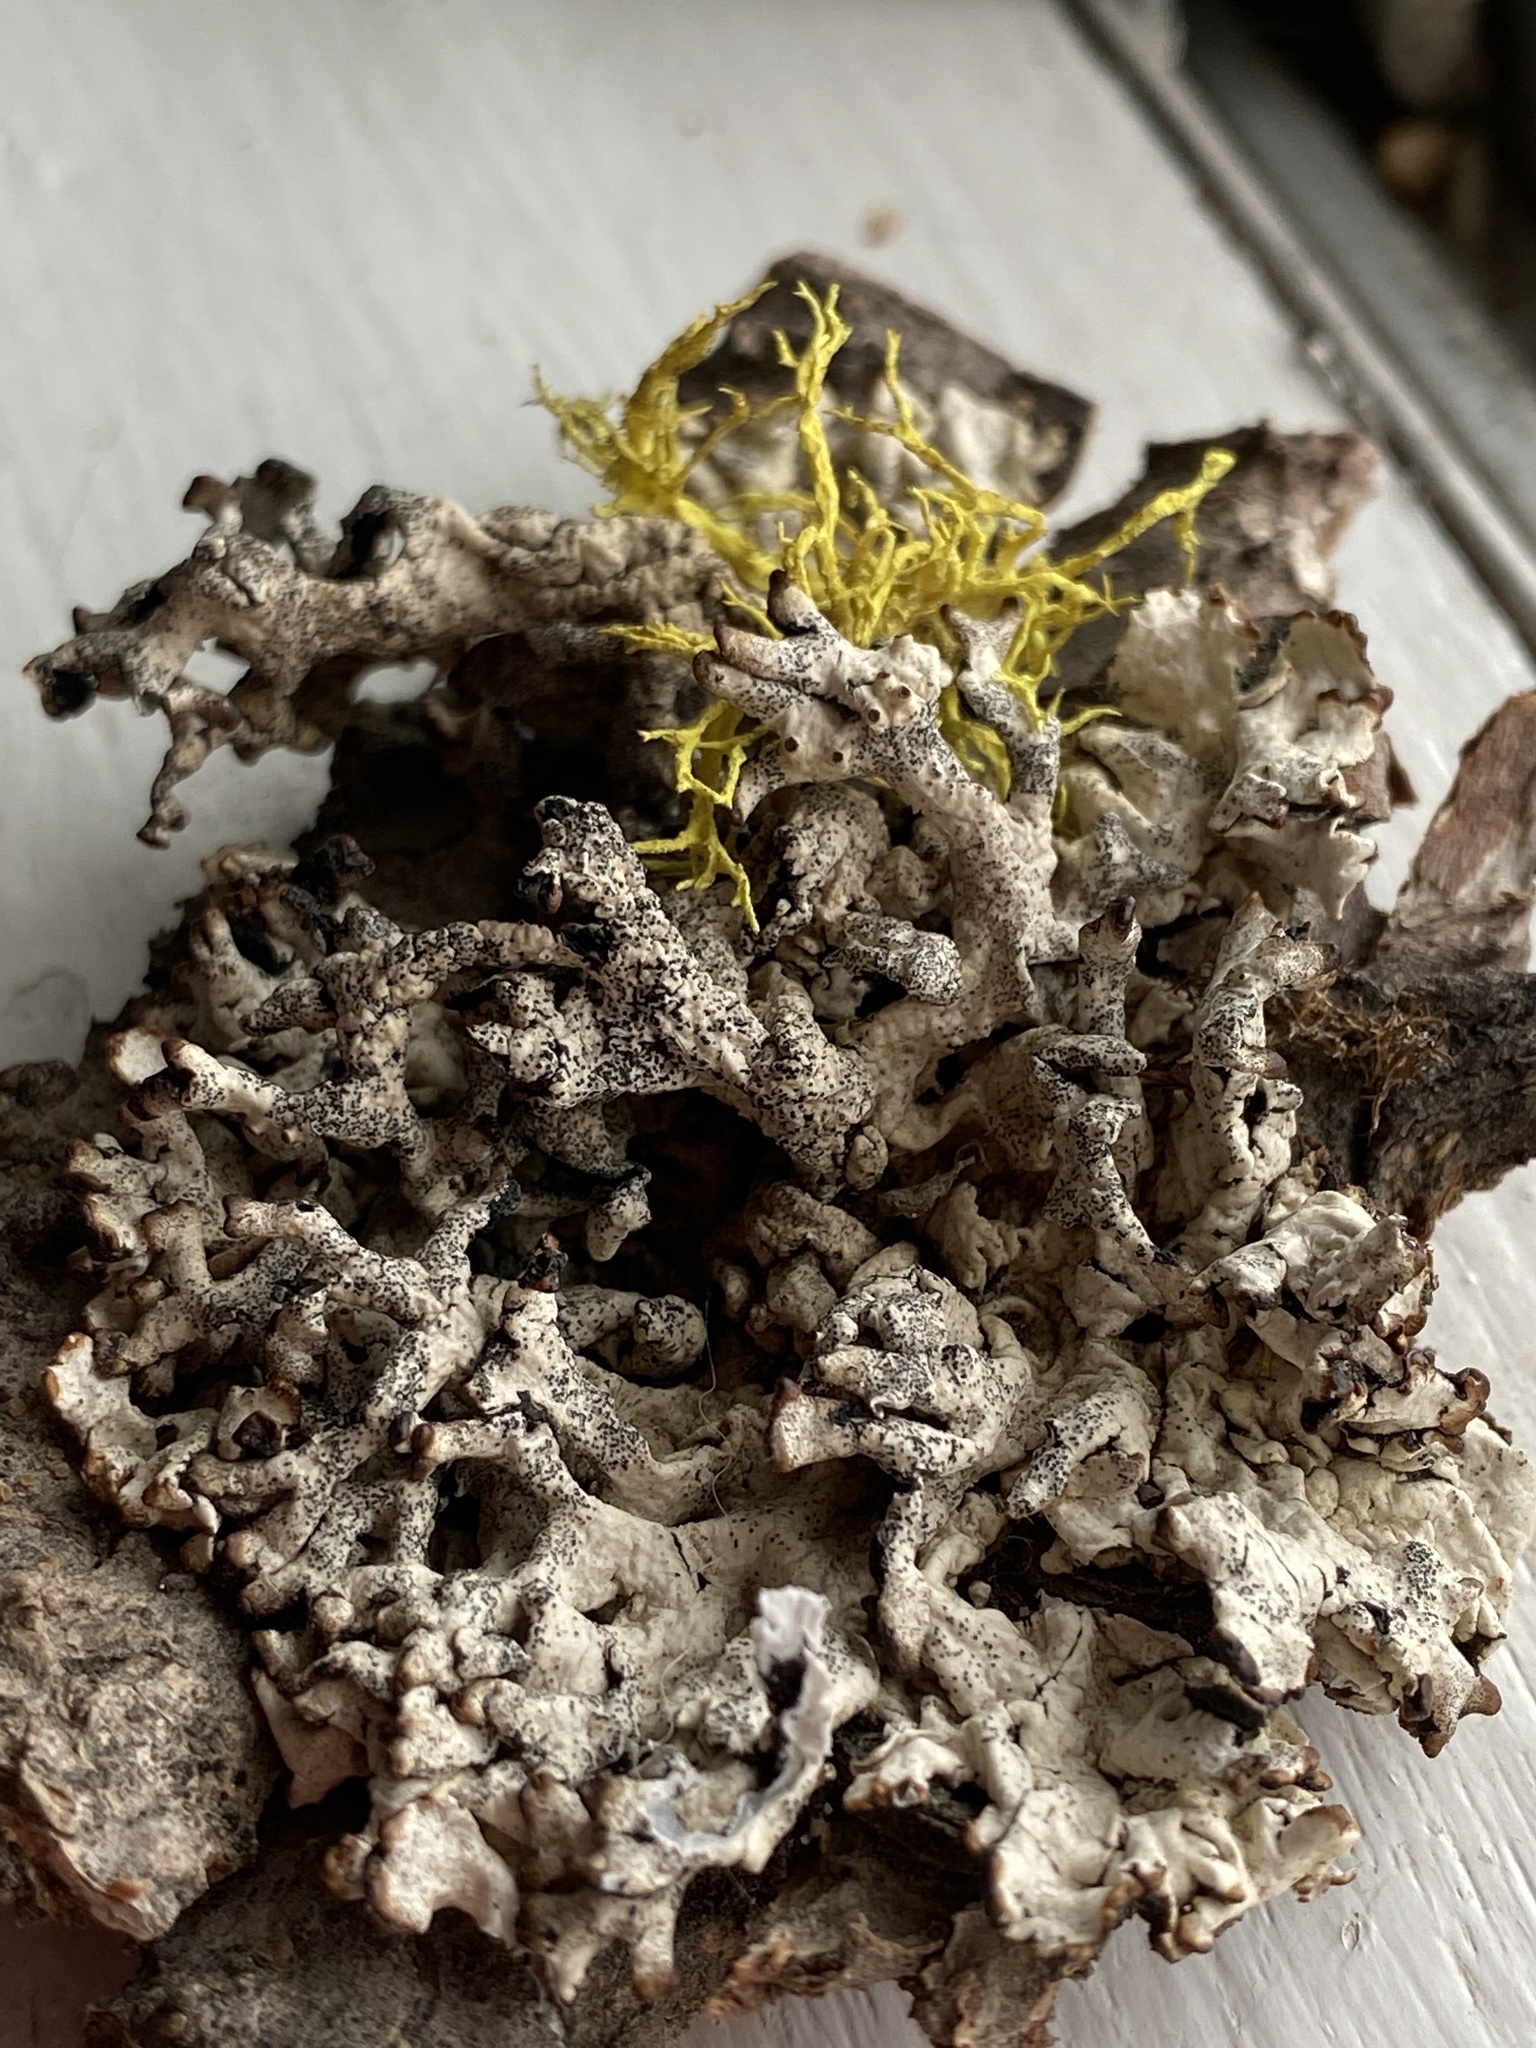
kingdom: Fungi
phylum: Ascomycota
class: Lecanoromycetes
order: Lecanorales
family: Parmeliaceae
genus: Hypogymnia
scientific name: Hypogymnia imshaugii
